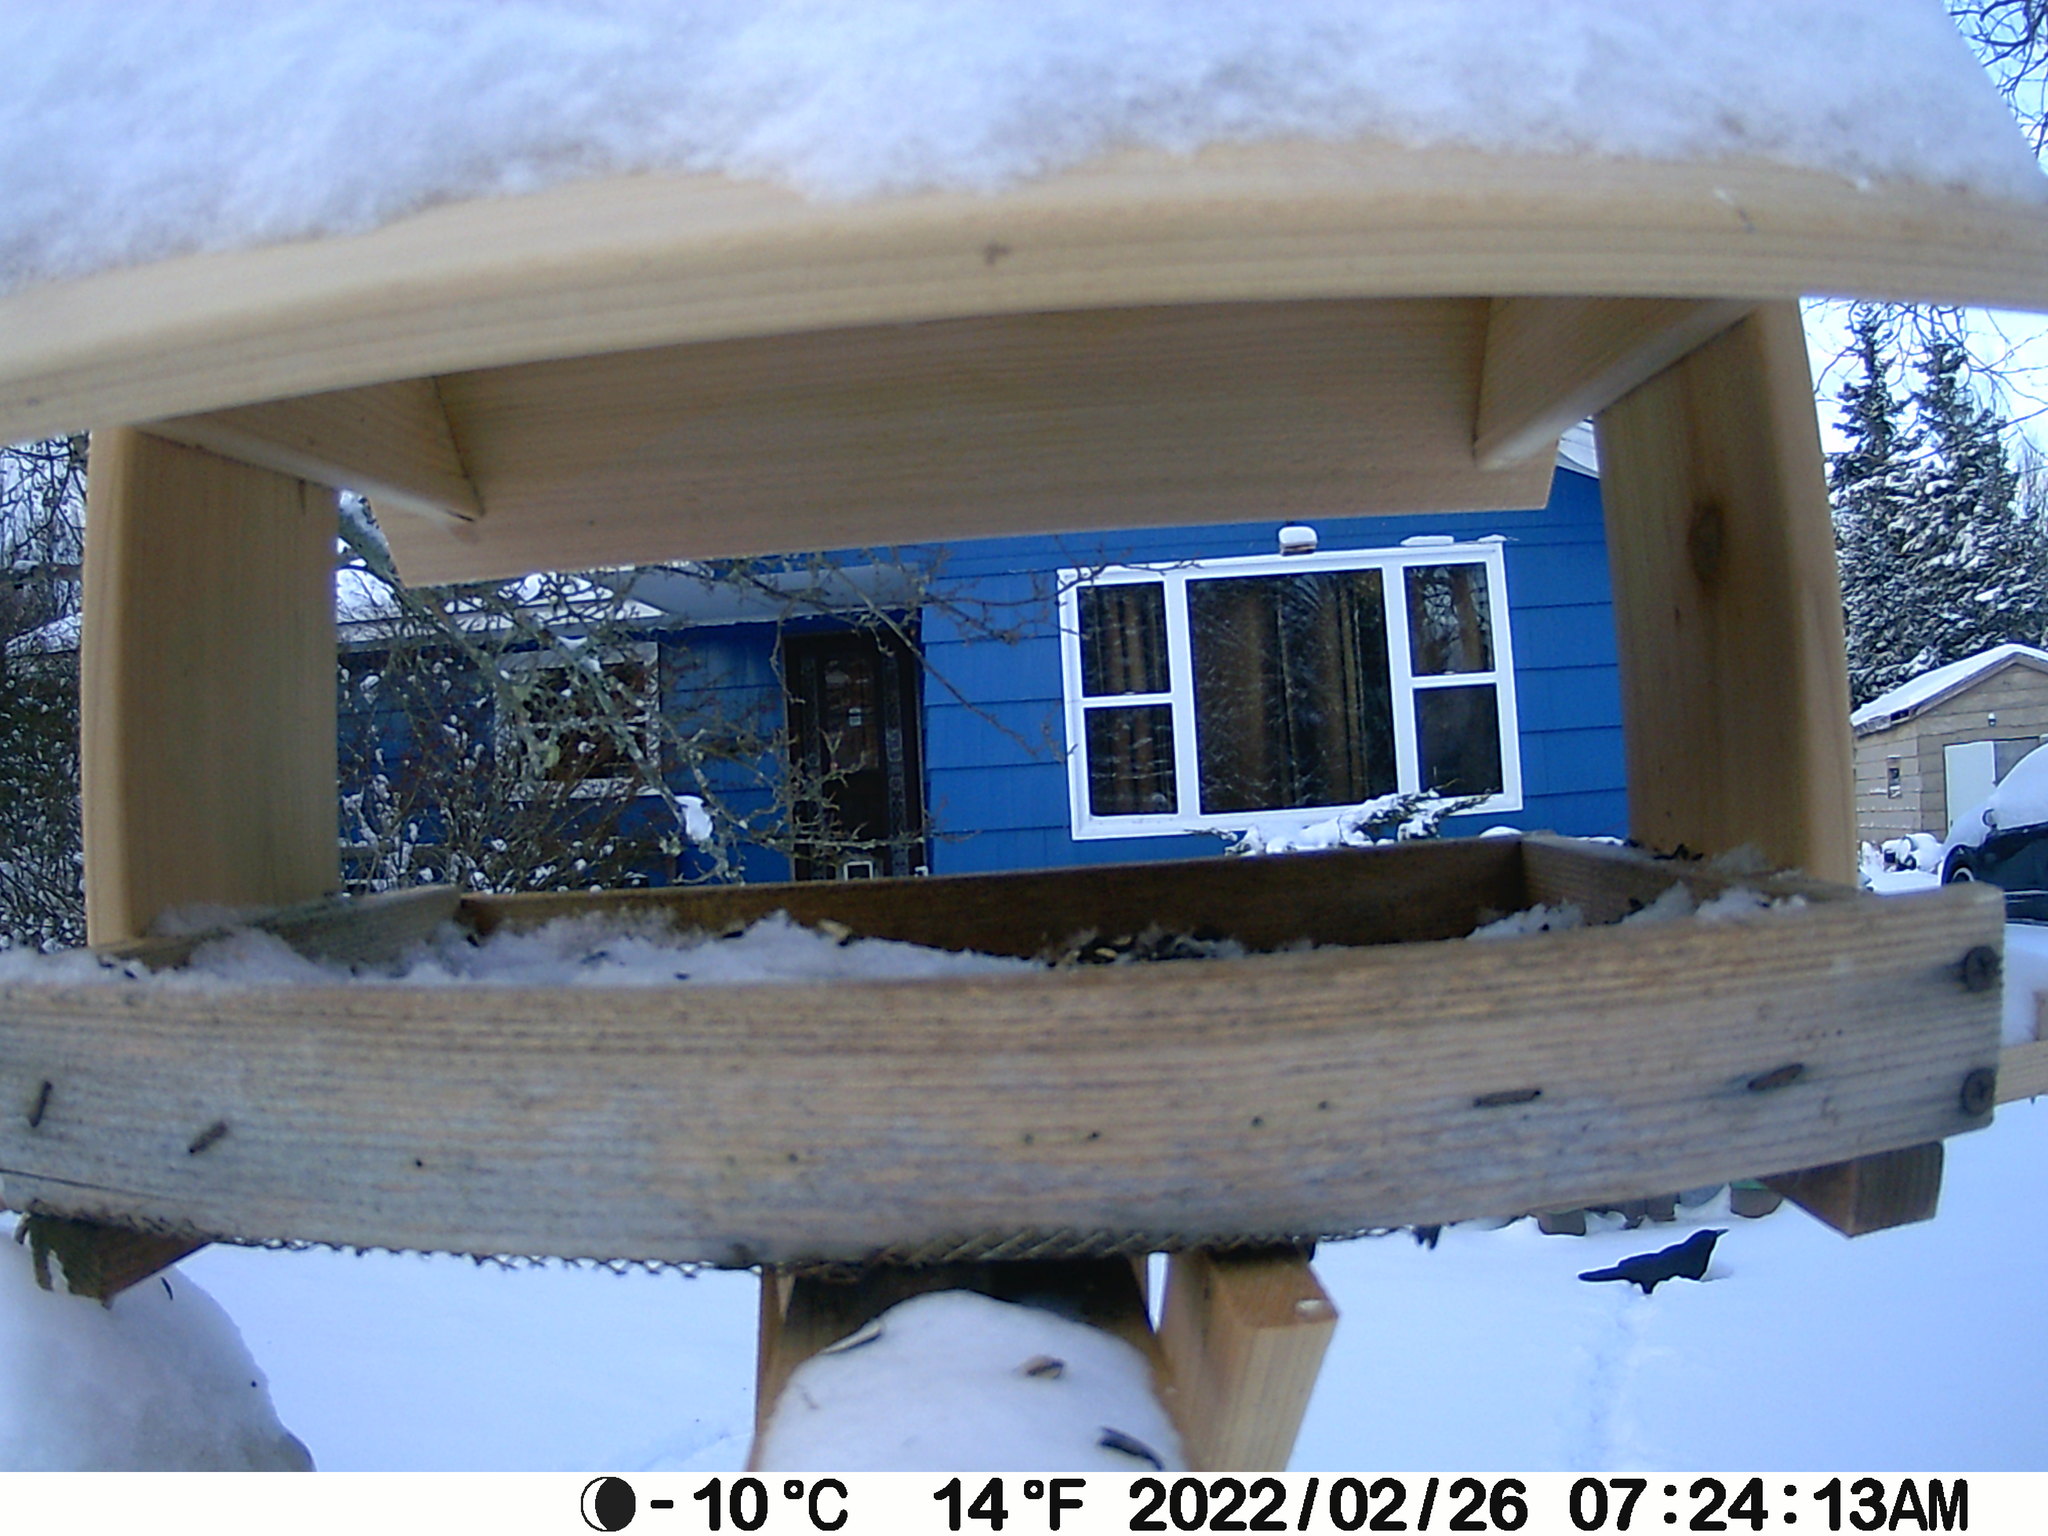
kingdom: Animalia
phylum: Chordata
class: Aves
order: Passeriformes
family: Corvidae
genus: Corvus
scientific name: Corvus brachyrhynchos
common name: American crow
